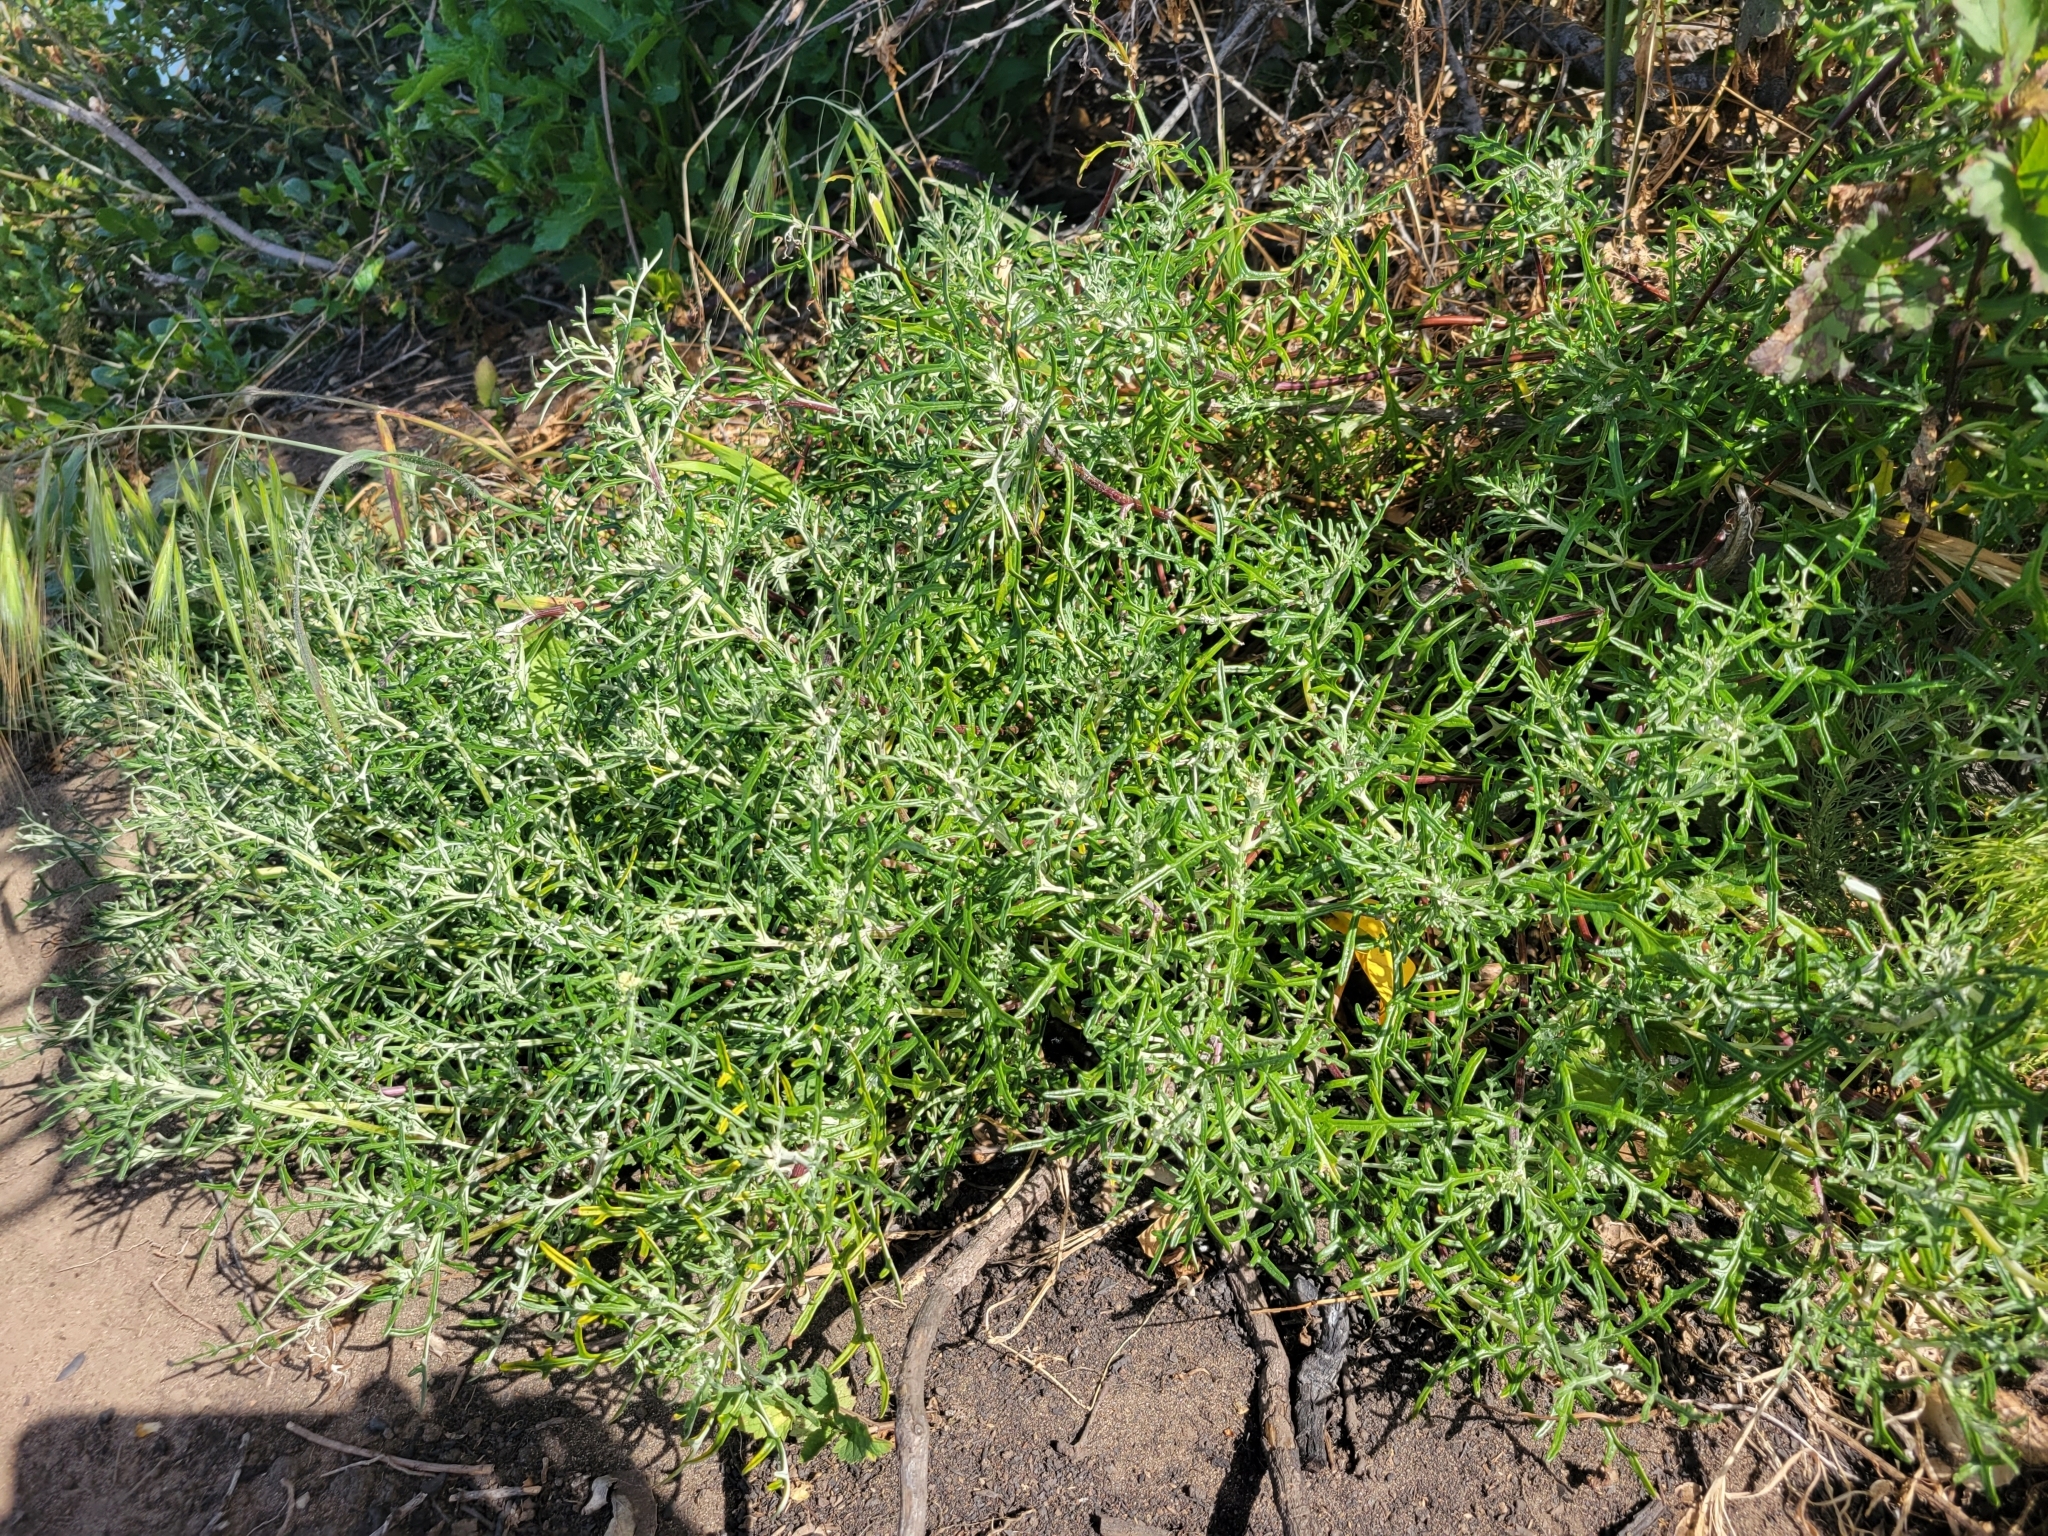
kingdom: Plantae
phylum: Tracheophyta
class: Magnoliopsida
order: Asterales
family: Asteraceae
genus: Eriophyllum
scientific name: Eriophyllum staechadifolium
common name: Lizardtail
